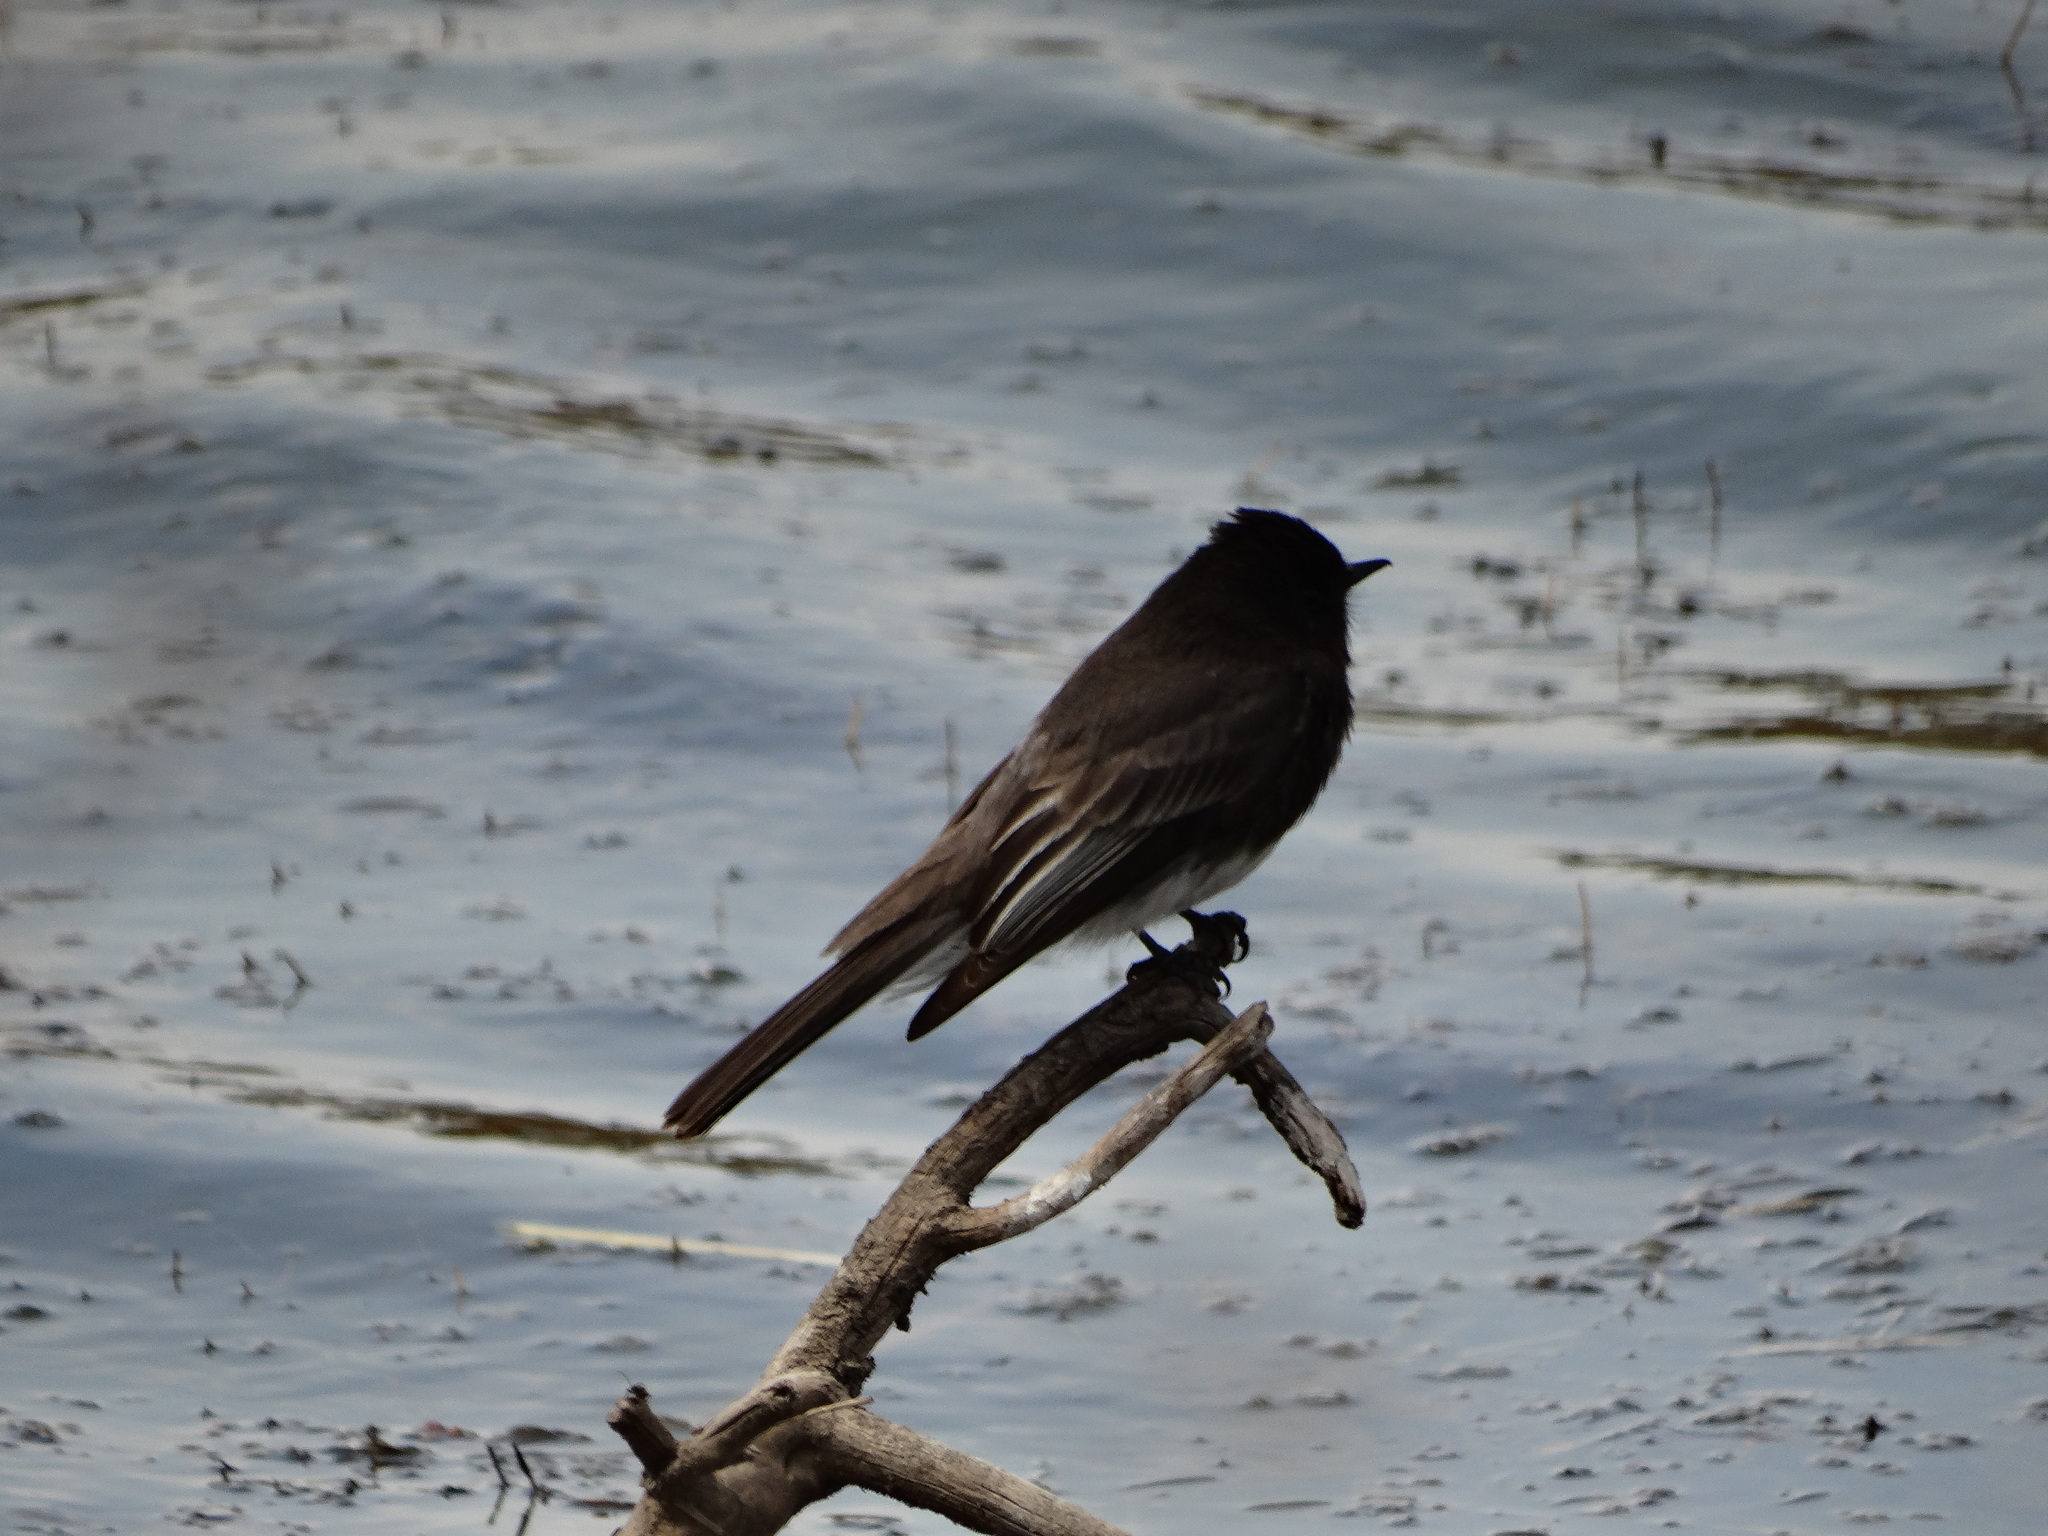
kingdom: Animalia
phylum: Chordata
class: Aves
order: Passeriformes
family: Tyrannidae
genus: Sayornis
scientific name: Sayornis nigricans
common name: Black phoebe
